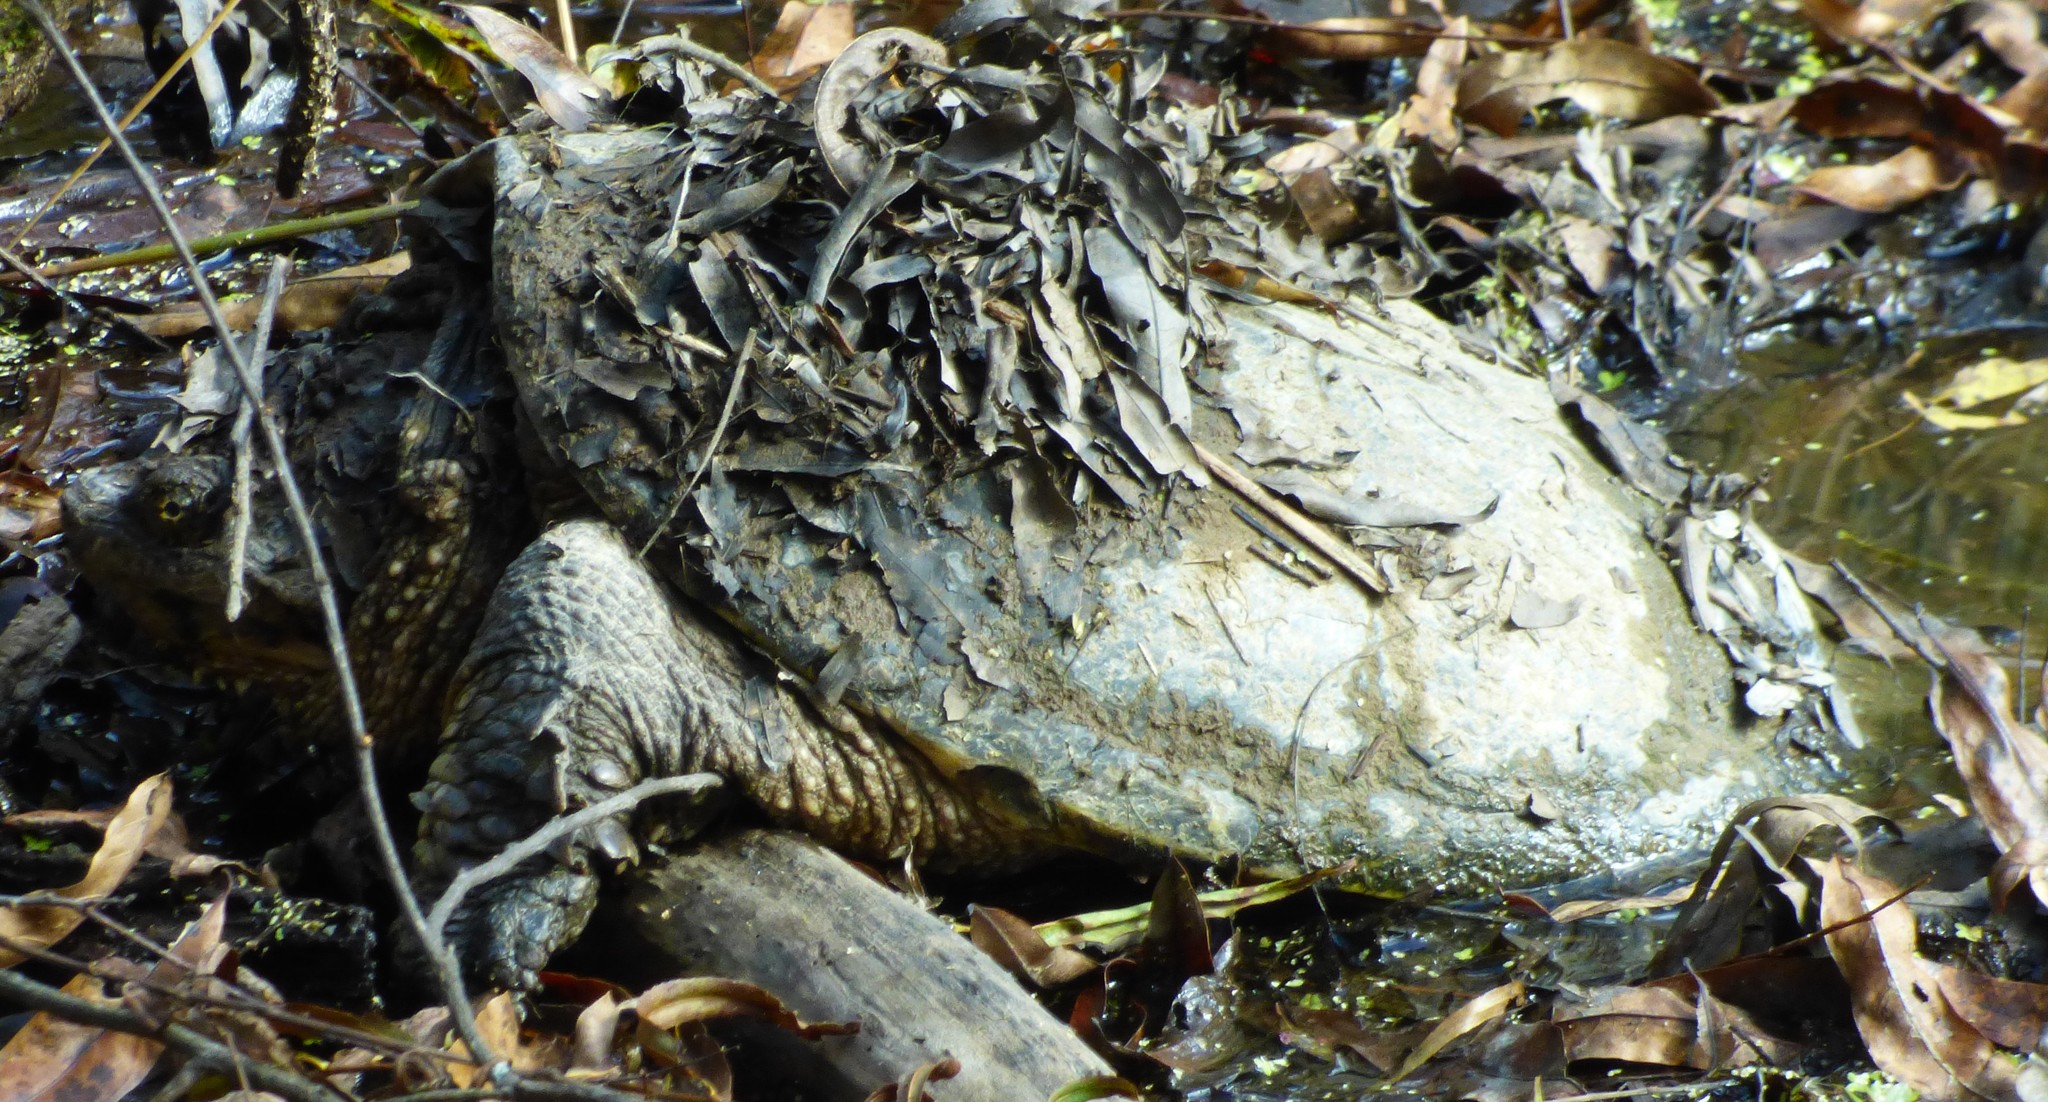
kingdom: Animalia
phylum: Chordata
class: Testudines
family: Chelydridae
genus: Chelydra
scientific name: Chelydra serpentina
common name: Common snapping turtle
